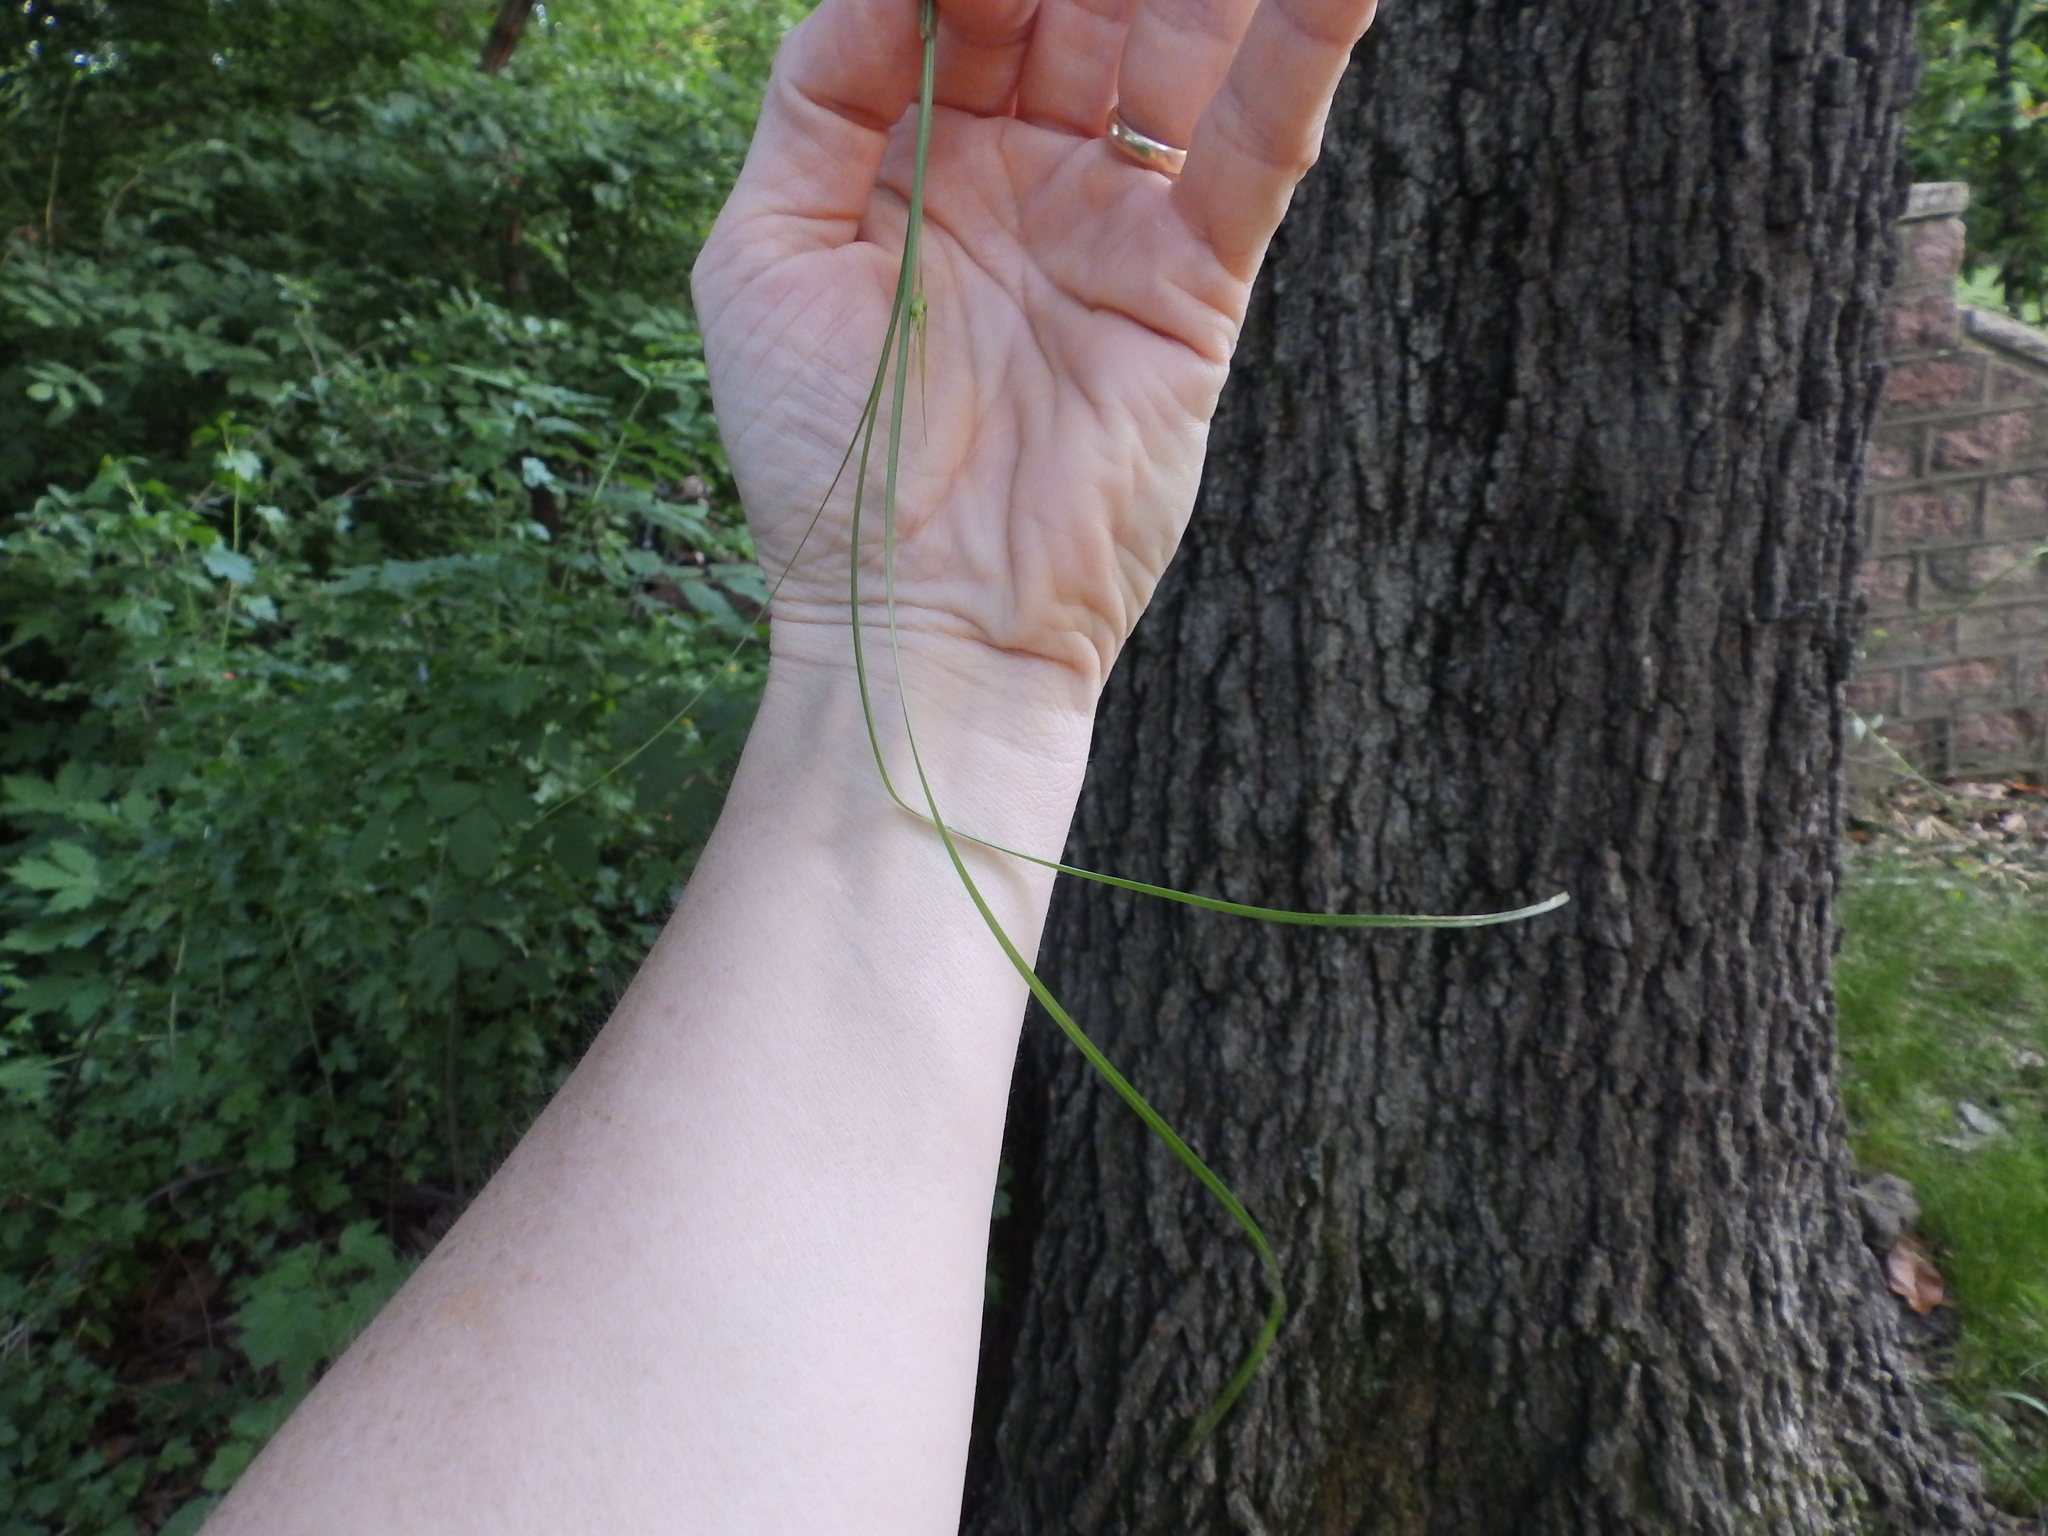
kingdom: Plantae
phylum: Tracheophyta
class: Liliopsida
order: Poales
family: Cyperaceae
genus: Carex
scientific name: Carex jamesii
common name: Grass sedge
